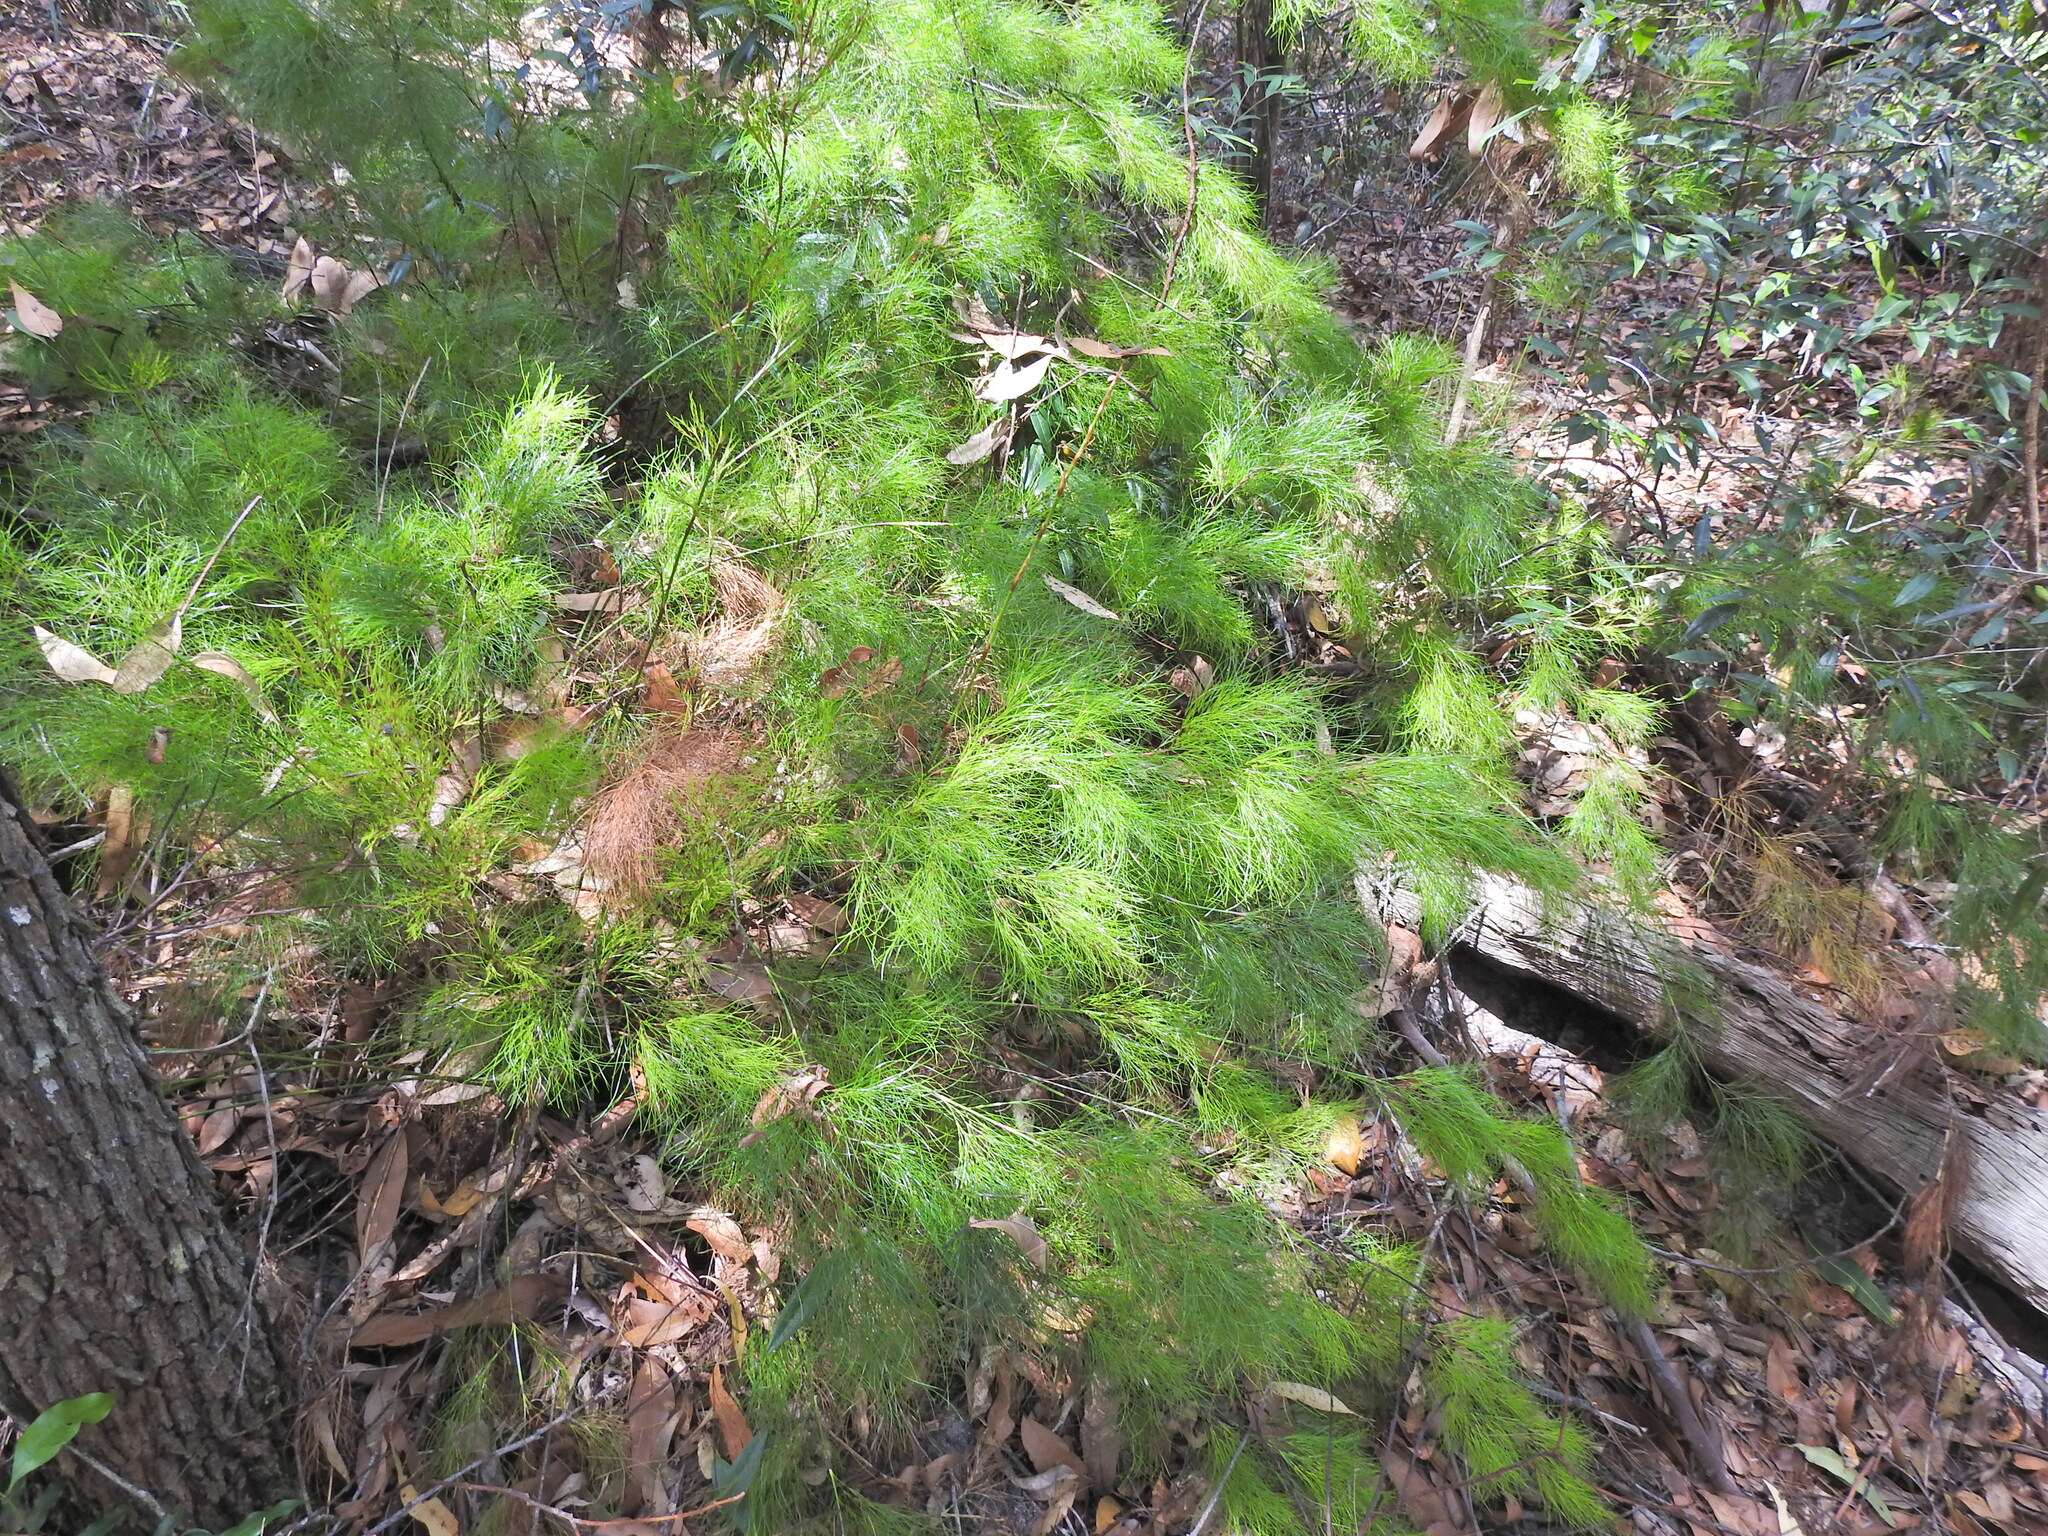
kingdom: Plantae
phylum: Tracheophyta
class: Liliopsida
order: Poales
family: Cyperaceae
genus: Caustis
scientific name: Caustis blakei
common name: Foxtail-fern
